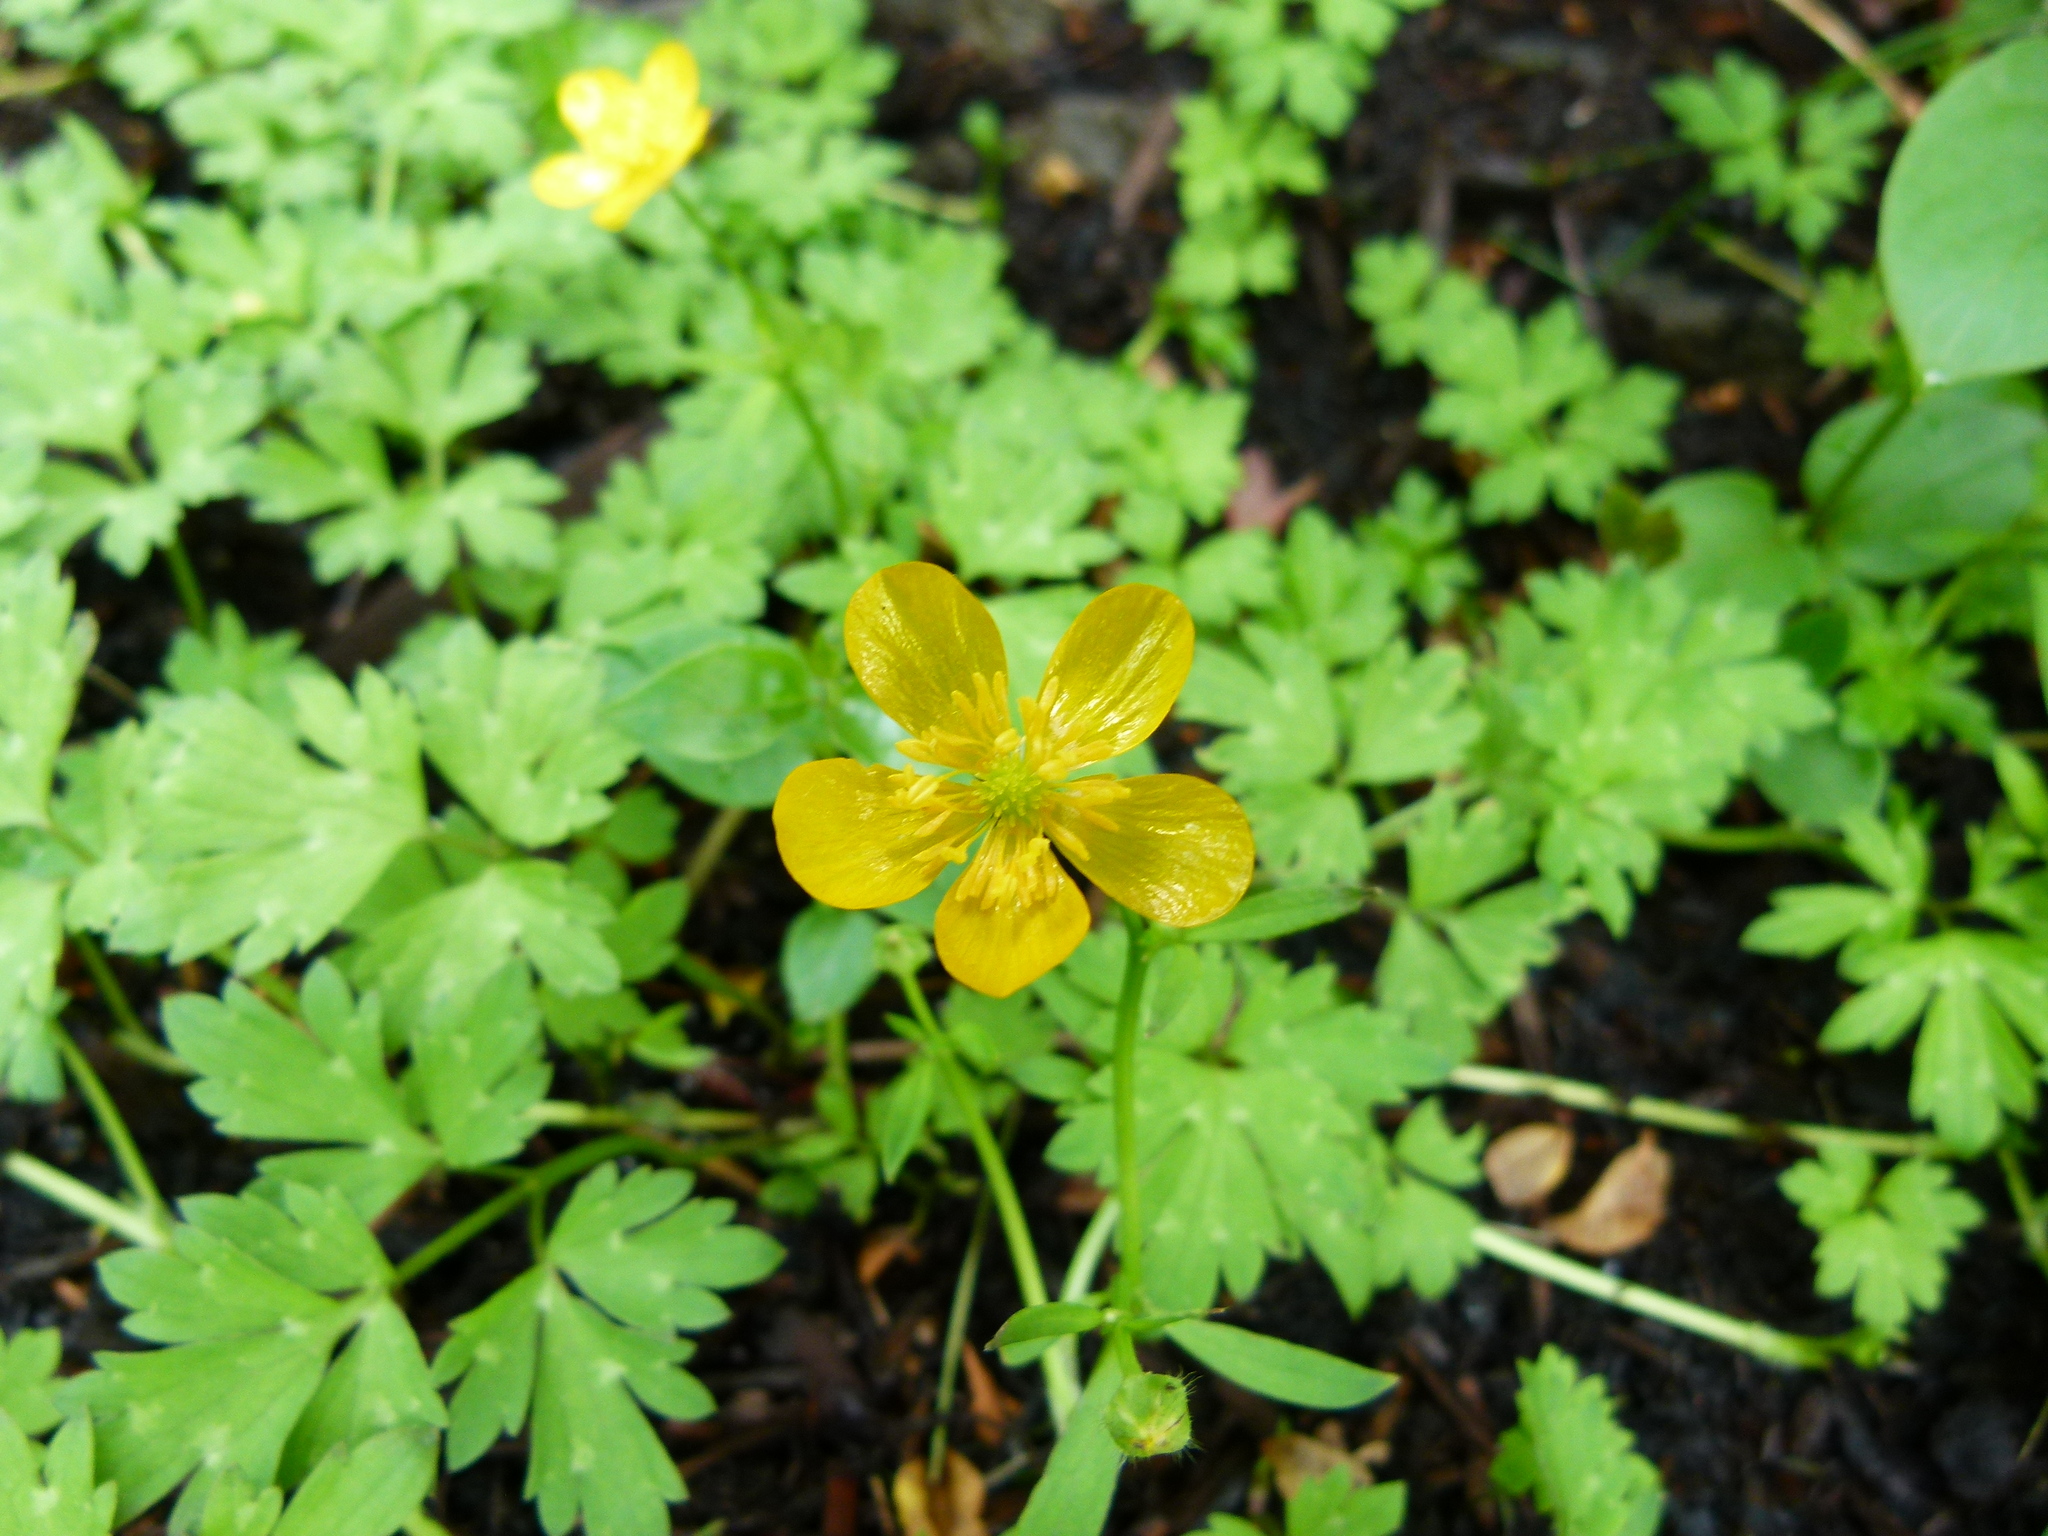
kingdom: Plantae
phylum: Tracheophyta
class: Magnoliopsida
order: Ranunculales
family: Ranunculaceae
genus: Ranunculus
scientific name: Ranunculus repens
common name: Creeping buttercup
